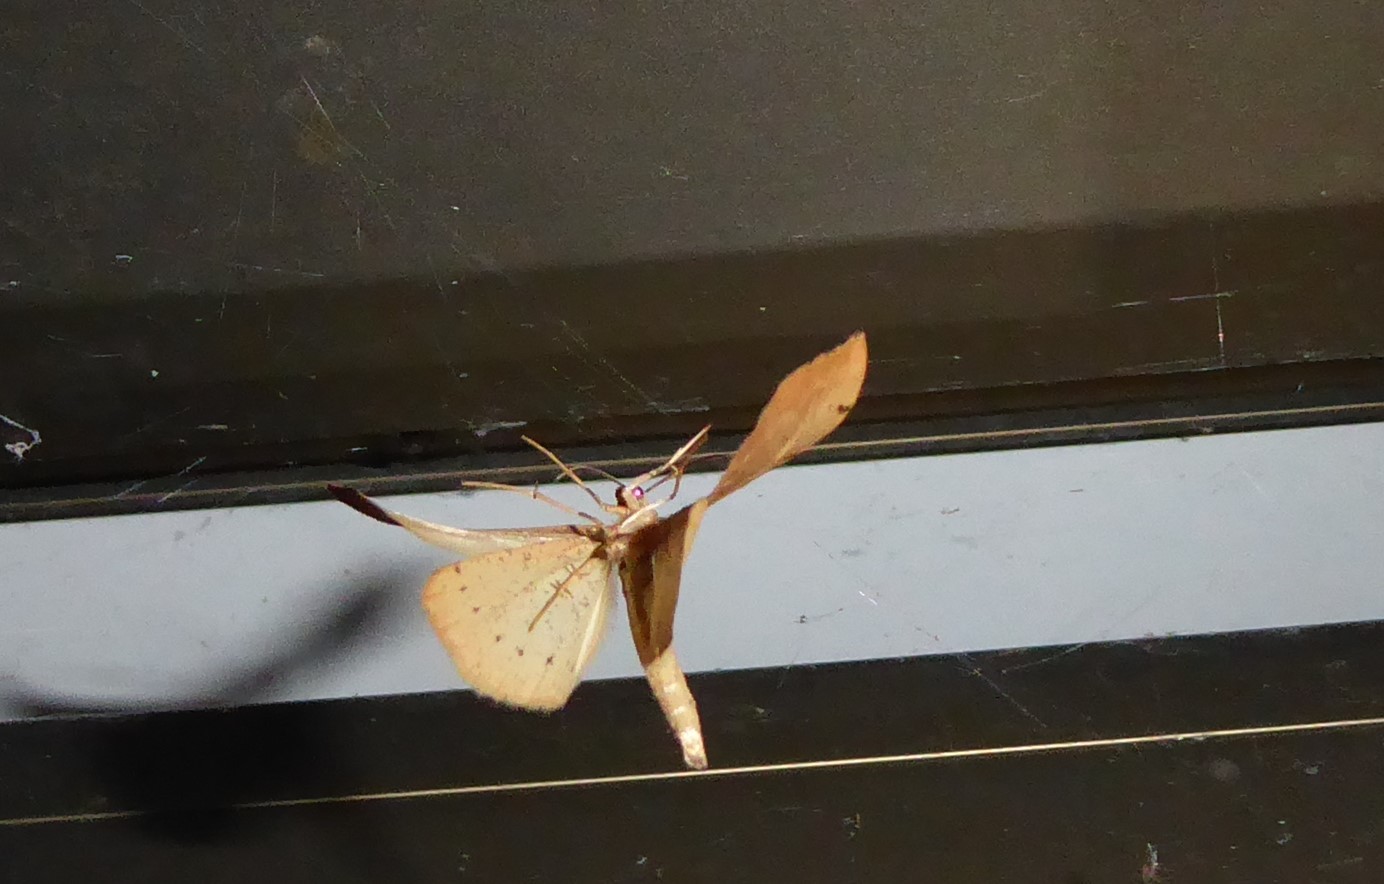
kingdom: Animalia
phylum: Arthropoda
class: Insecta
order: Lepidoptera
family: Geometridae
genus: Sestra
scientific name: Sestra humeraria
